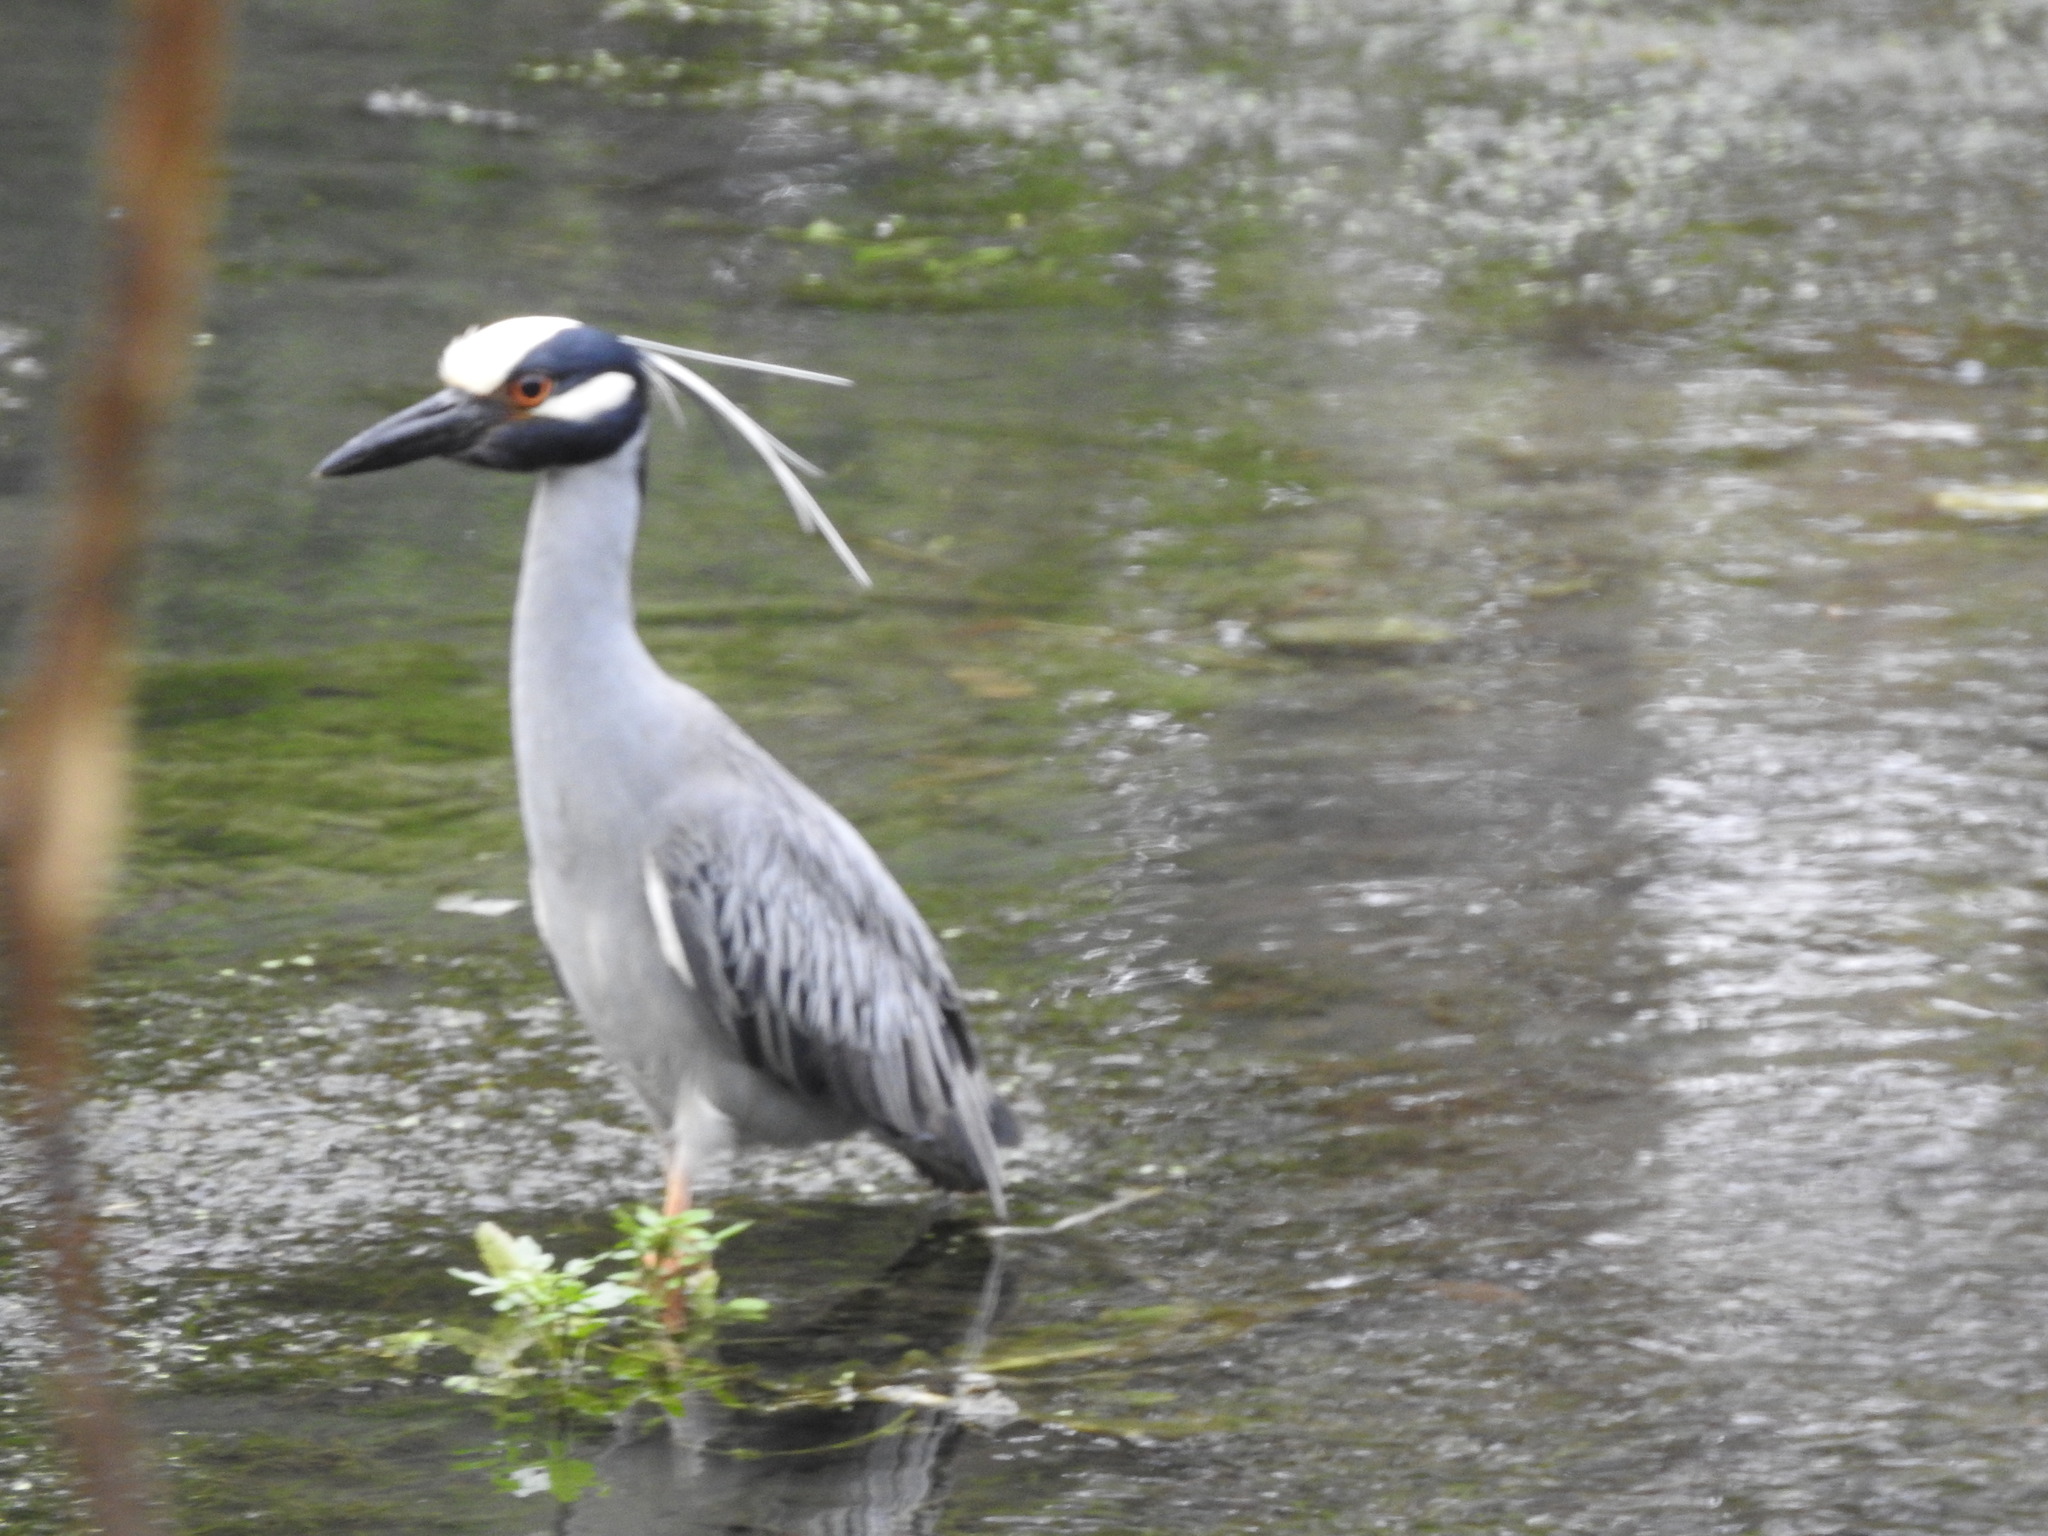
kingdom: Animalia
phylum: Chordata
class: Aves
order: Pelecaniformes
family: Ardeidae
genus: Nyctanassa
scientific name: Nyctanassa violacea
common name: Yellow-crowned night heron
